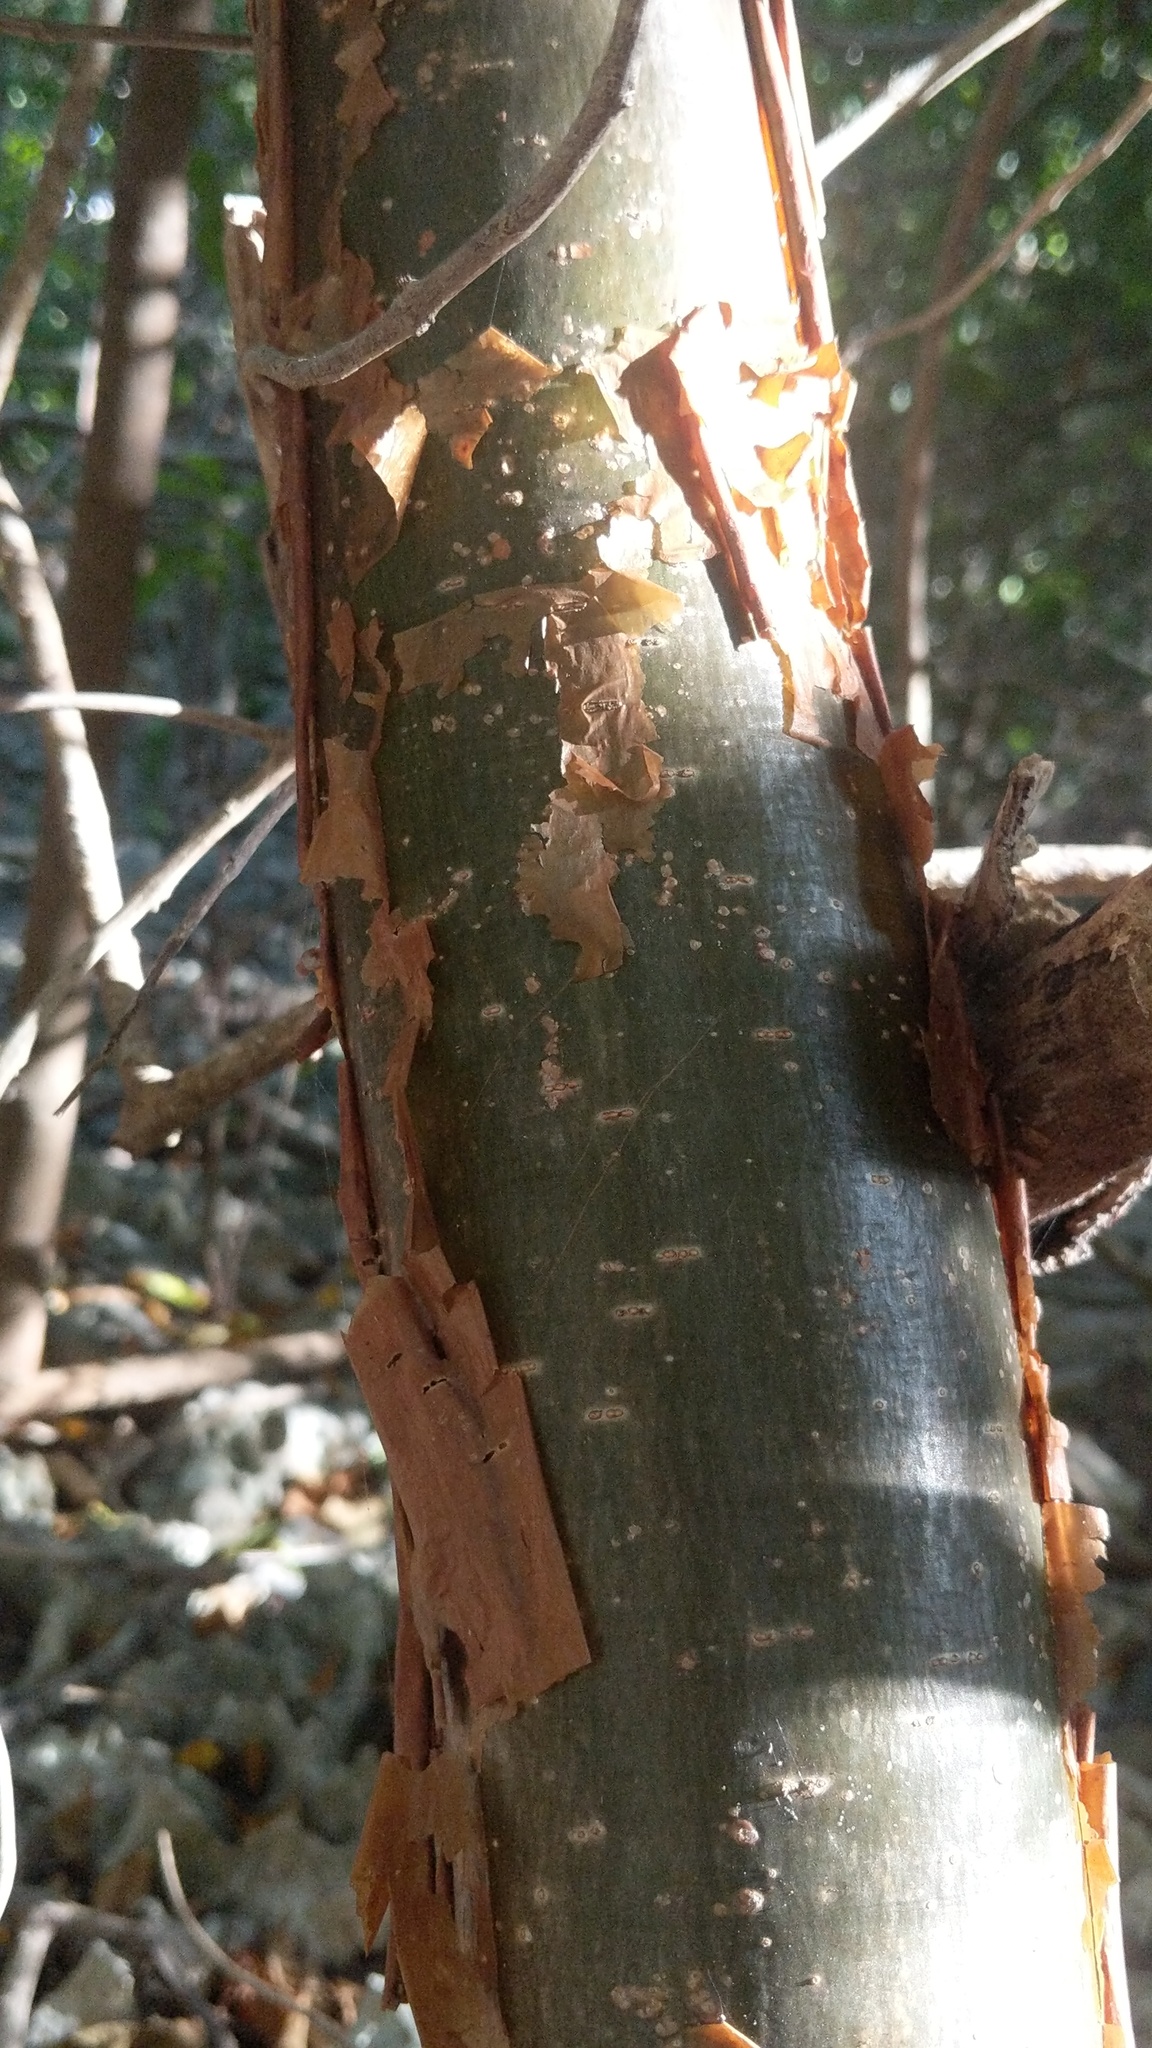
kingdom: Plantae
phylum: Tracheophyta
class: Magnoliopsida
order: Sapindales
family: Burseraceae
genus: Bursera
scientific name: Bursera simaruba
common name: Turpentine tree
